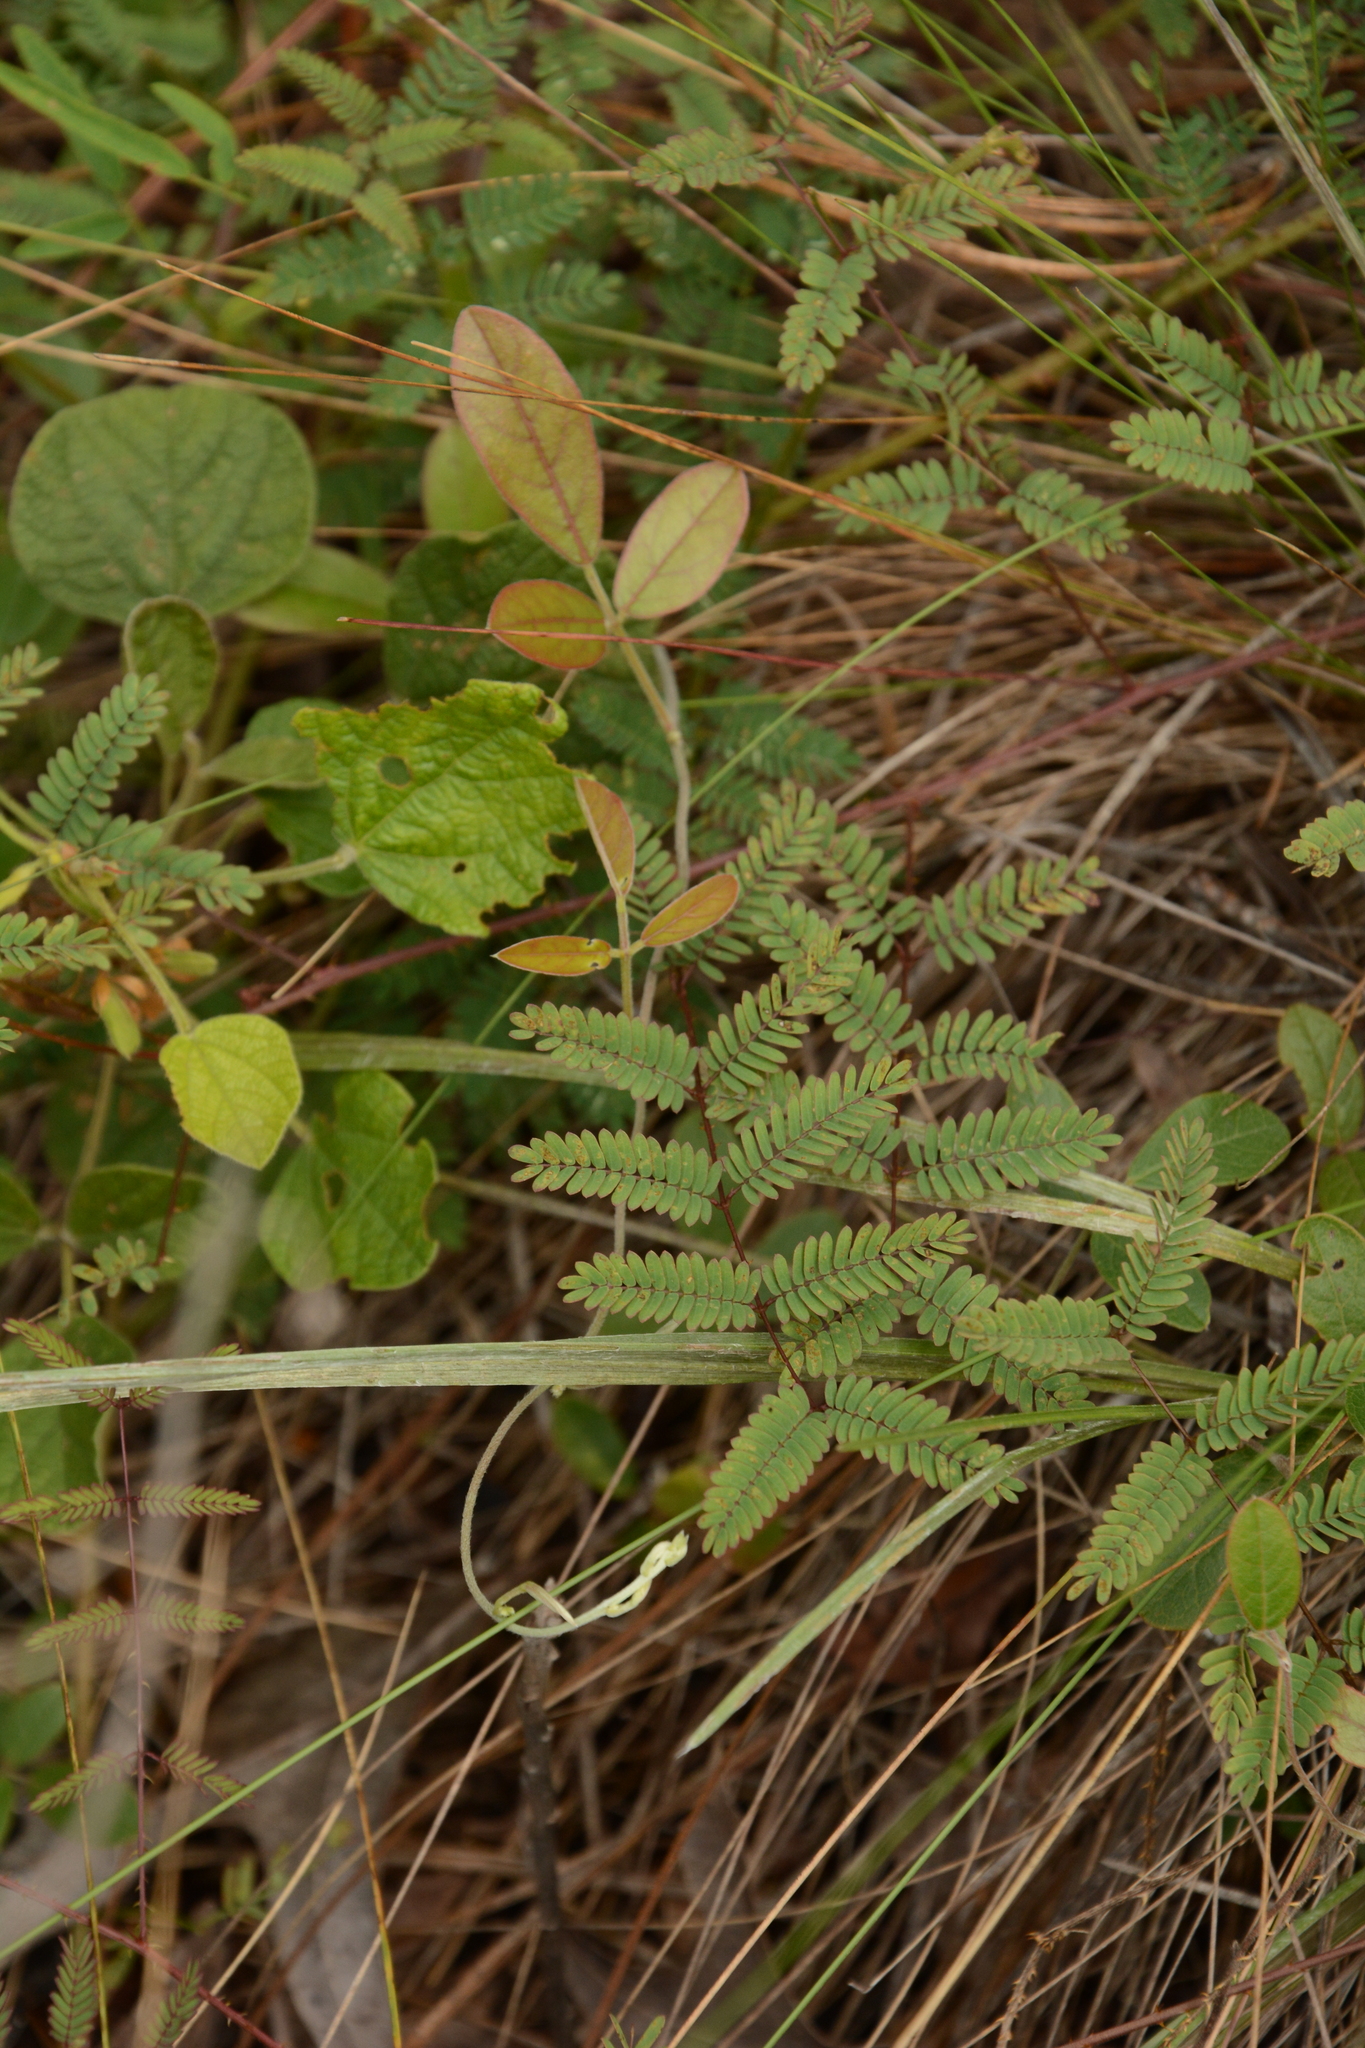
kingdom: Plantae
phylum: Tracheophyta
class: Magnoliopsida
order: Fabales
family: Fabaceae
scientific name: Fabaceae
